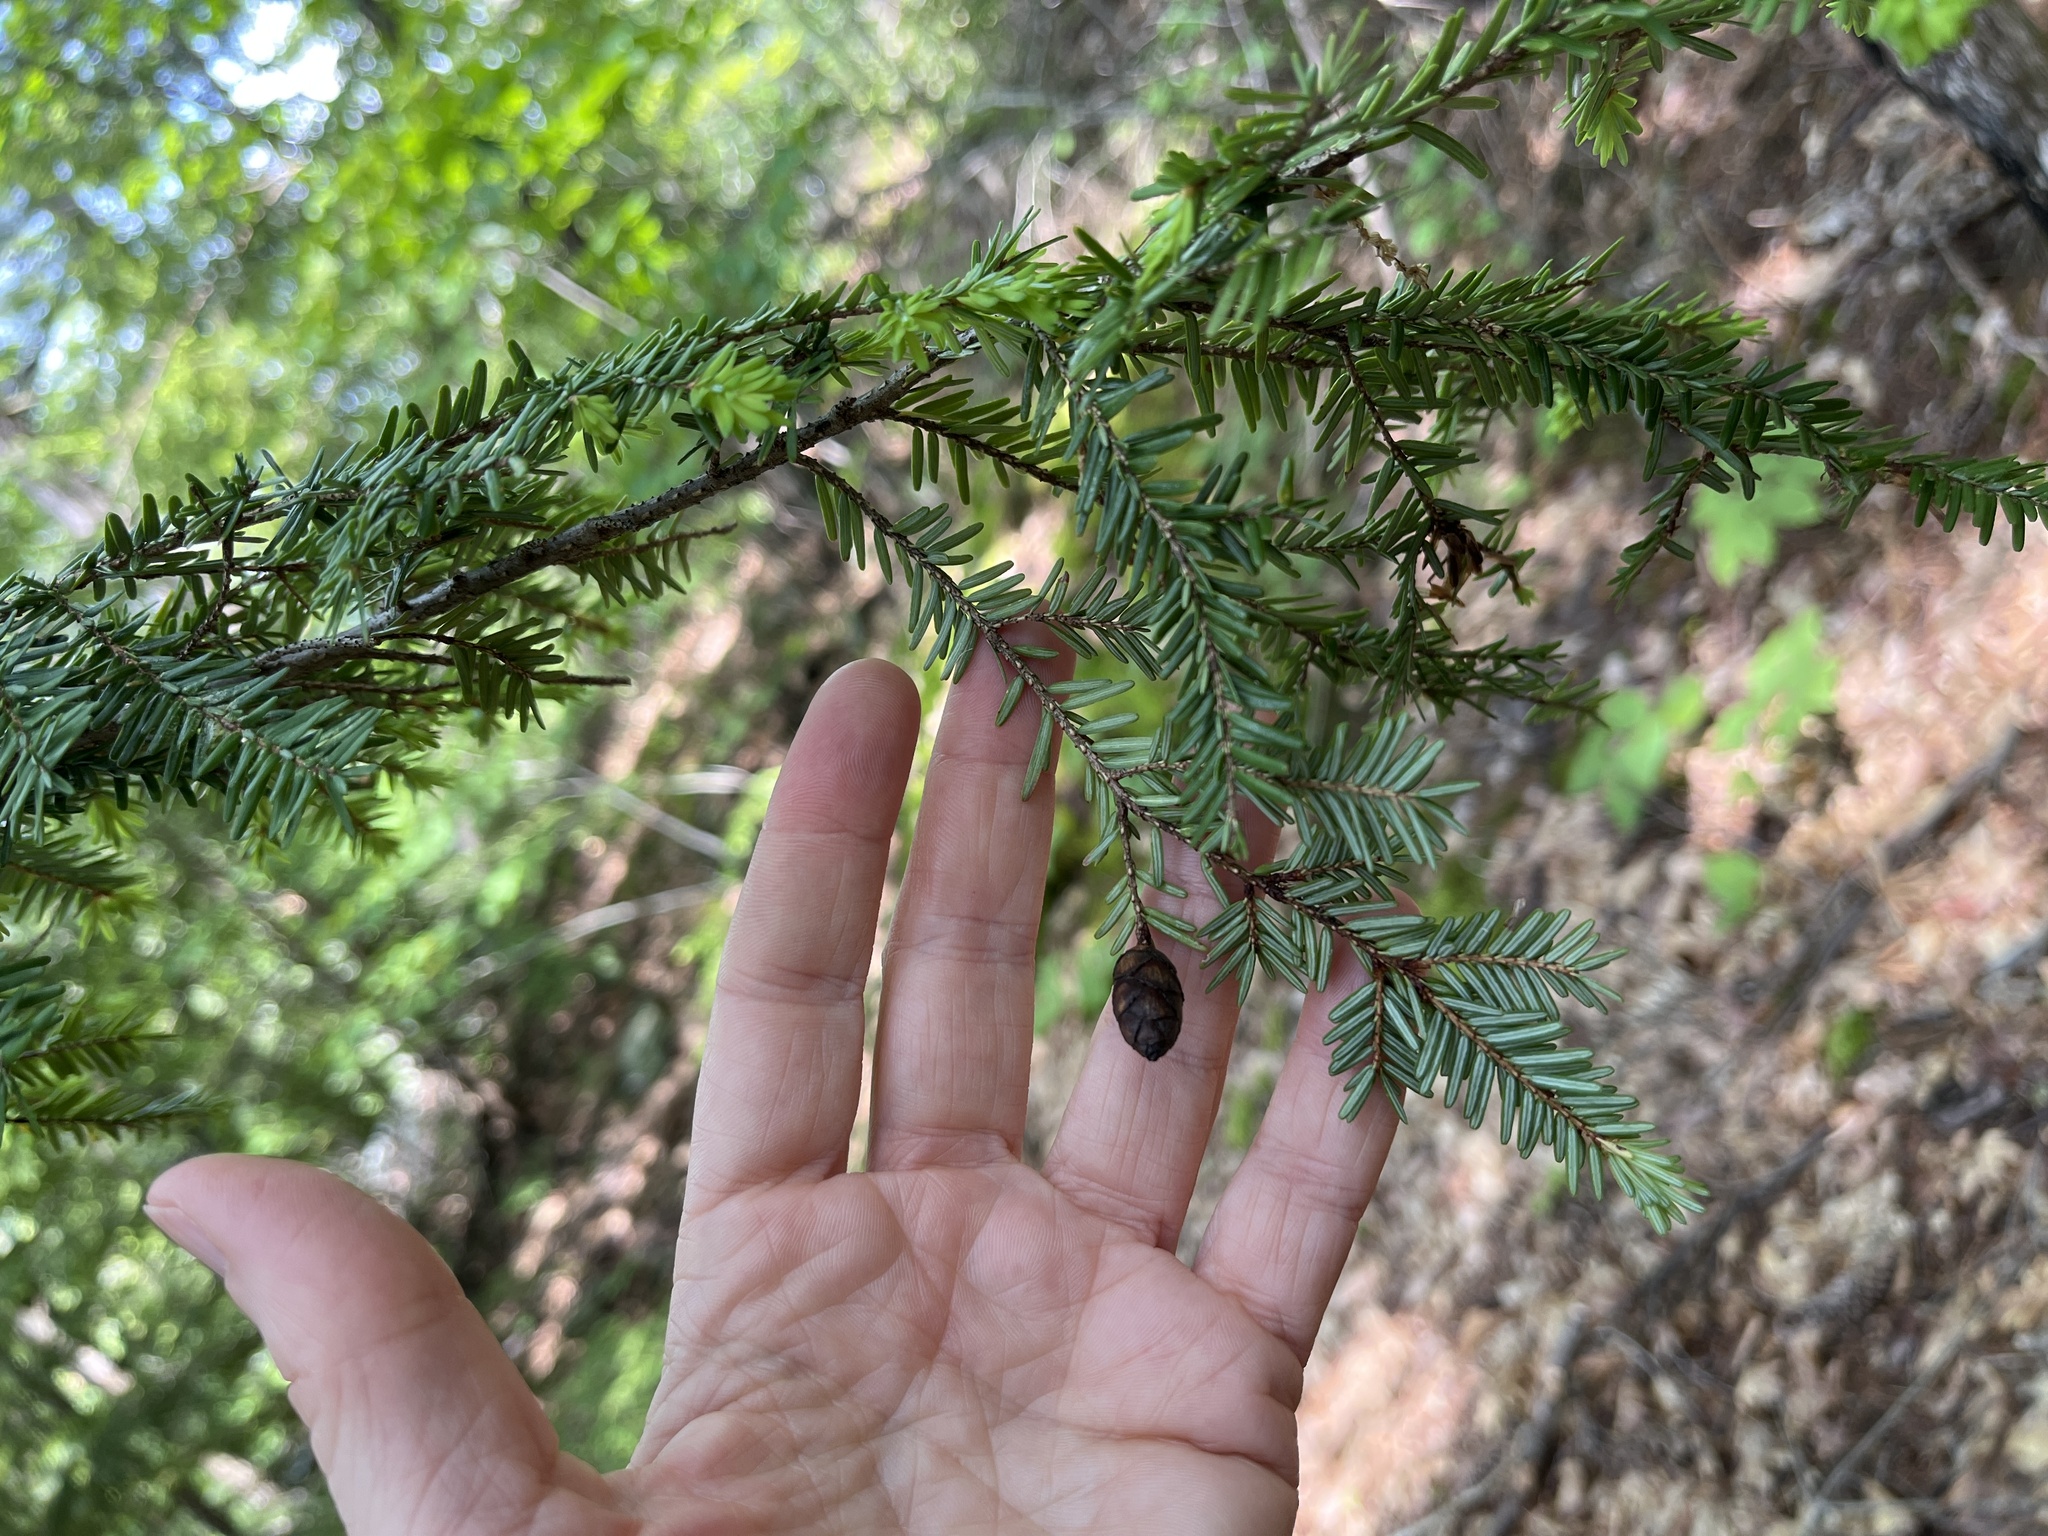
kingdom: Plantae
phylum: Tracheophyta
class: Pinopsida
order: Pinales
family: Pinaceae
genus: Tsuga
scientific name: Tsuga canadensis
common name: Eastern hemlock
